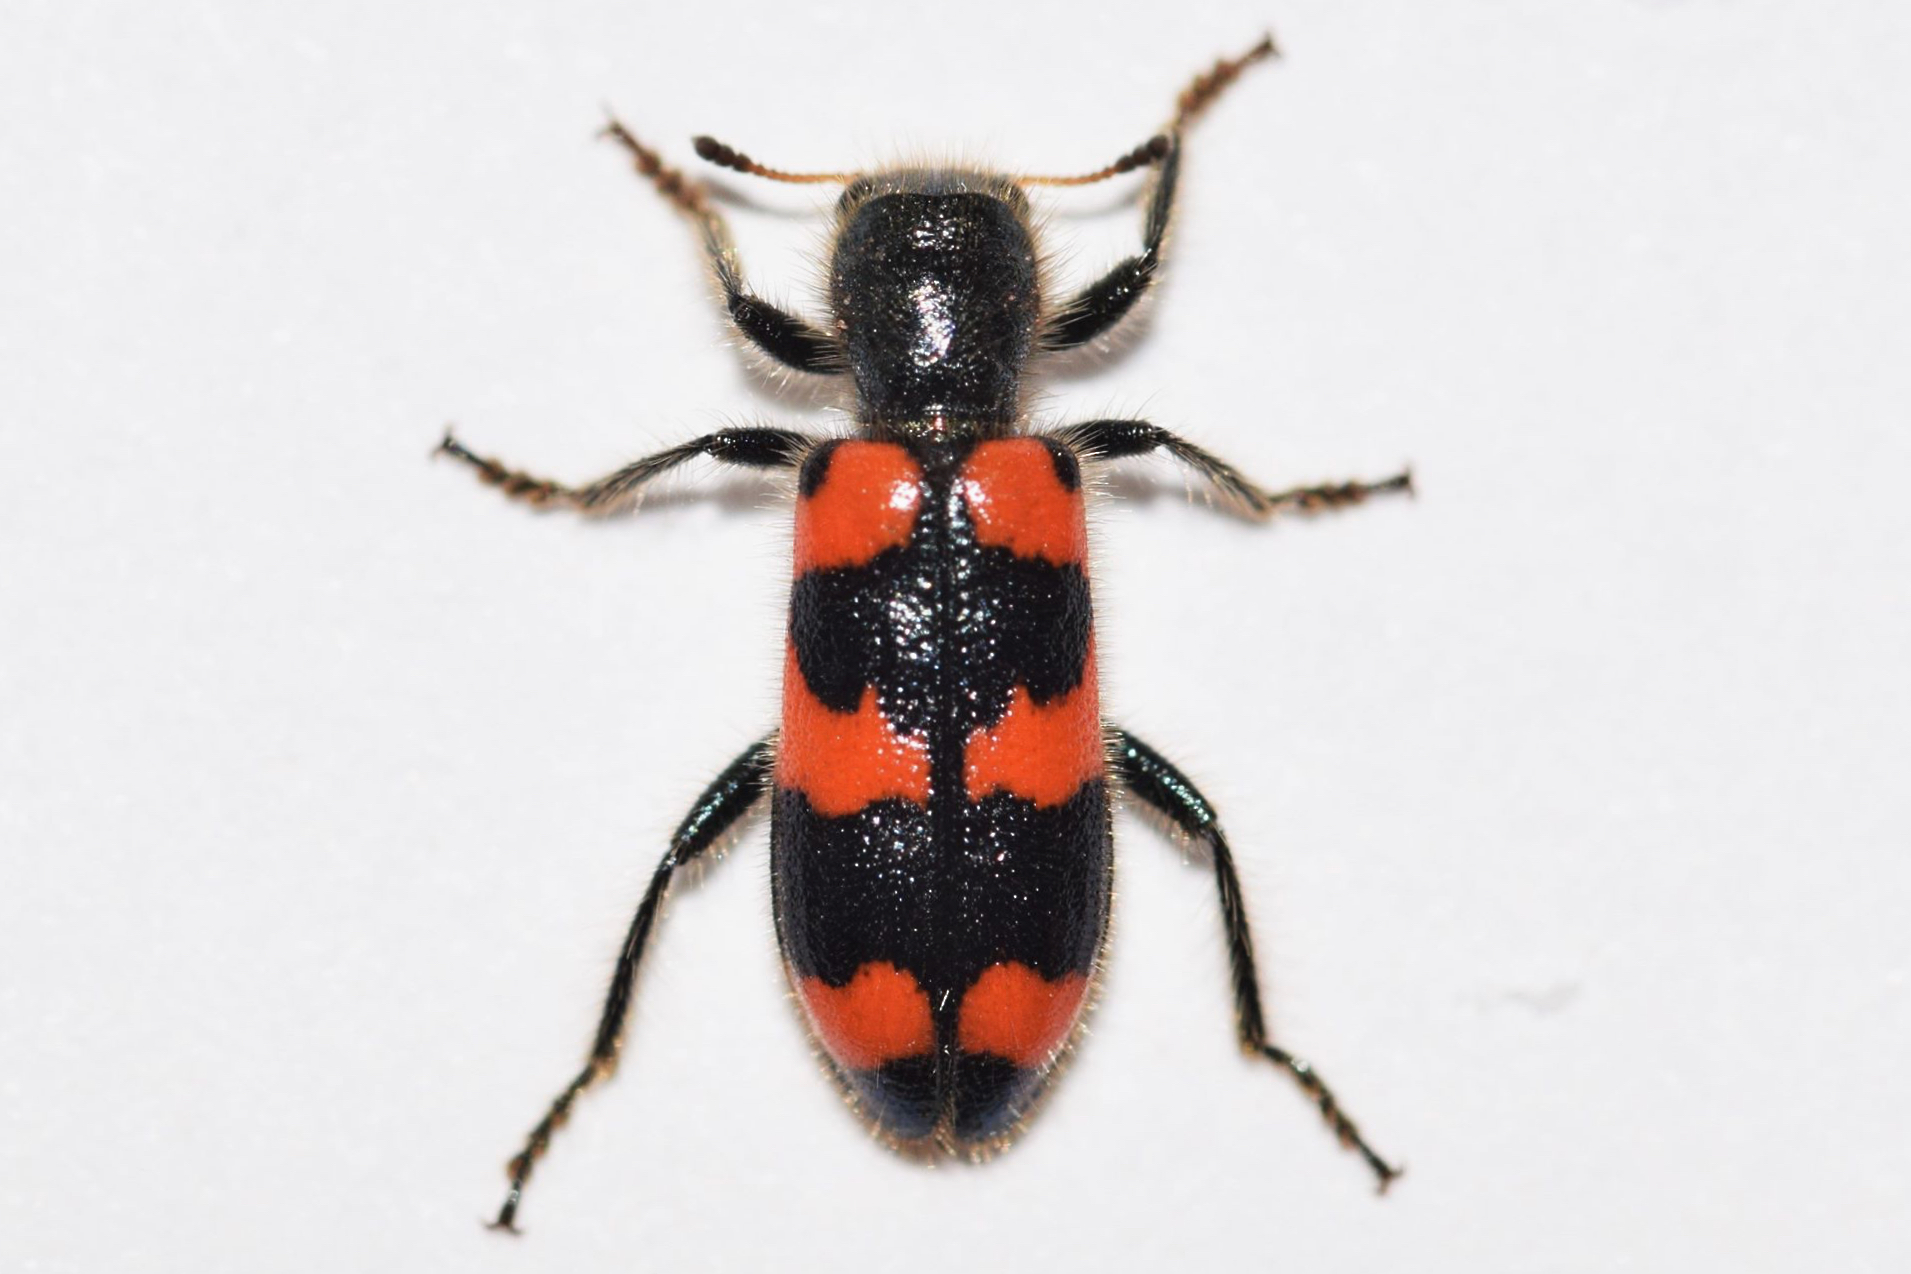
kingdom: Animalia
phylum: Arthropoda
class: Insecta
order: Coleoptera
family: Cleridae
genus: Trichodes
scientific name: Trichodes nutalli
